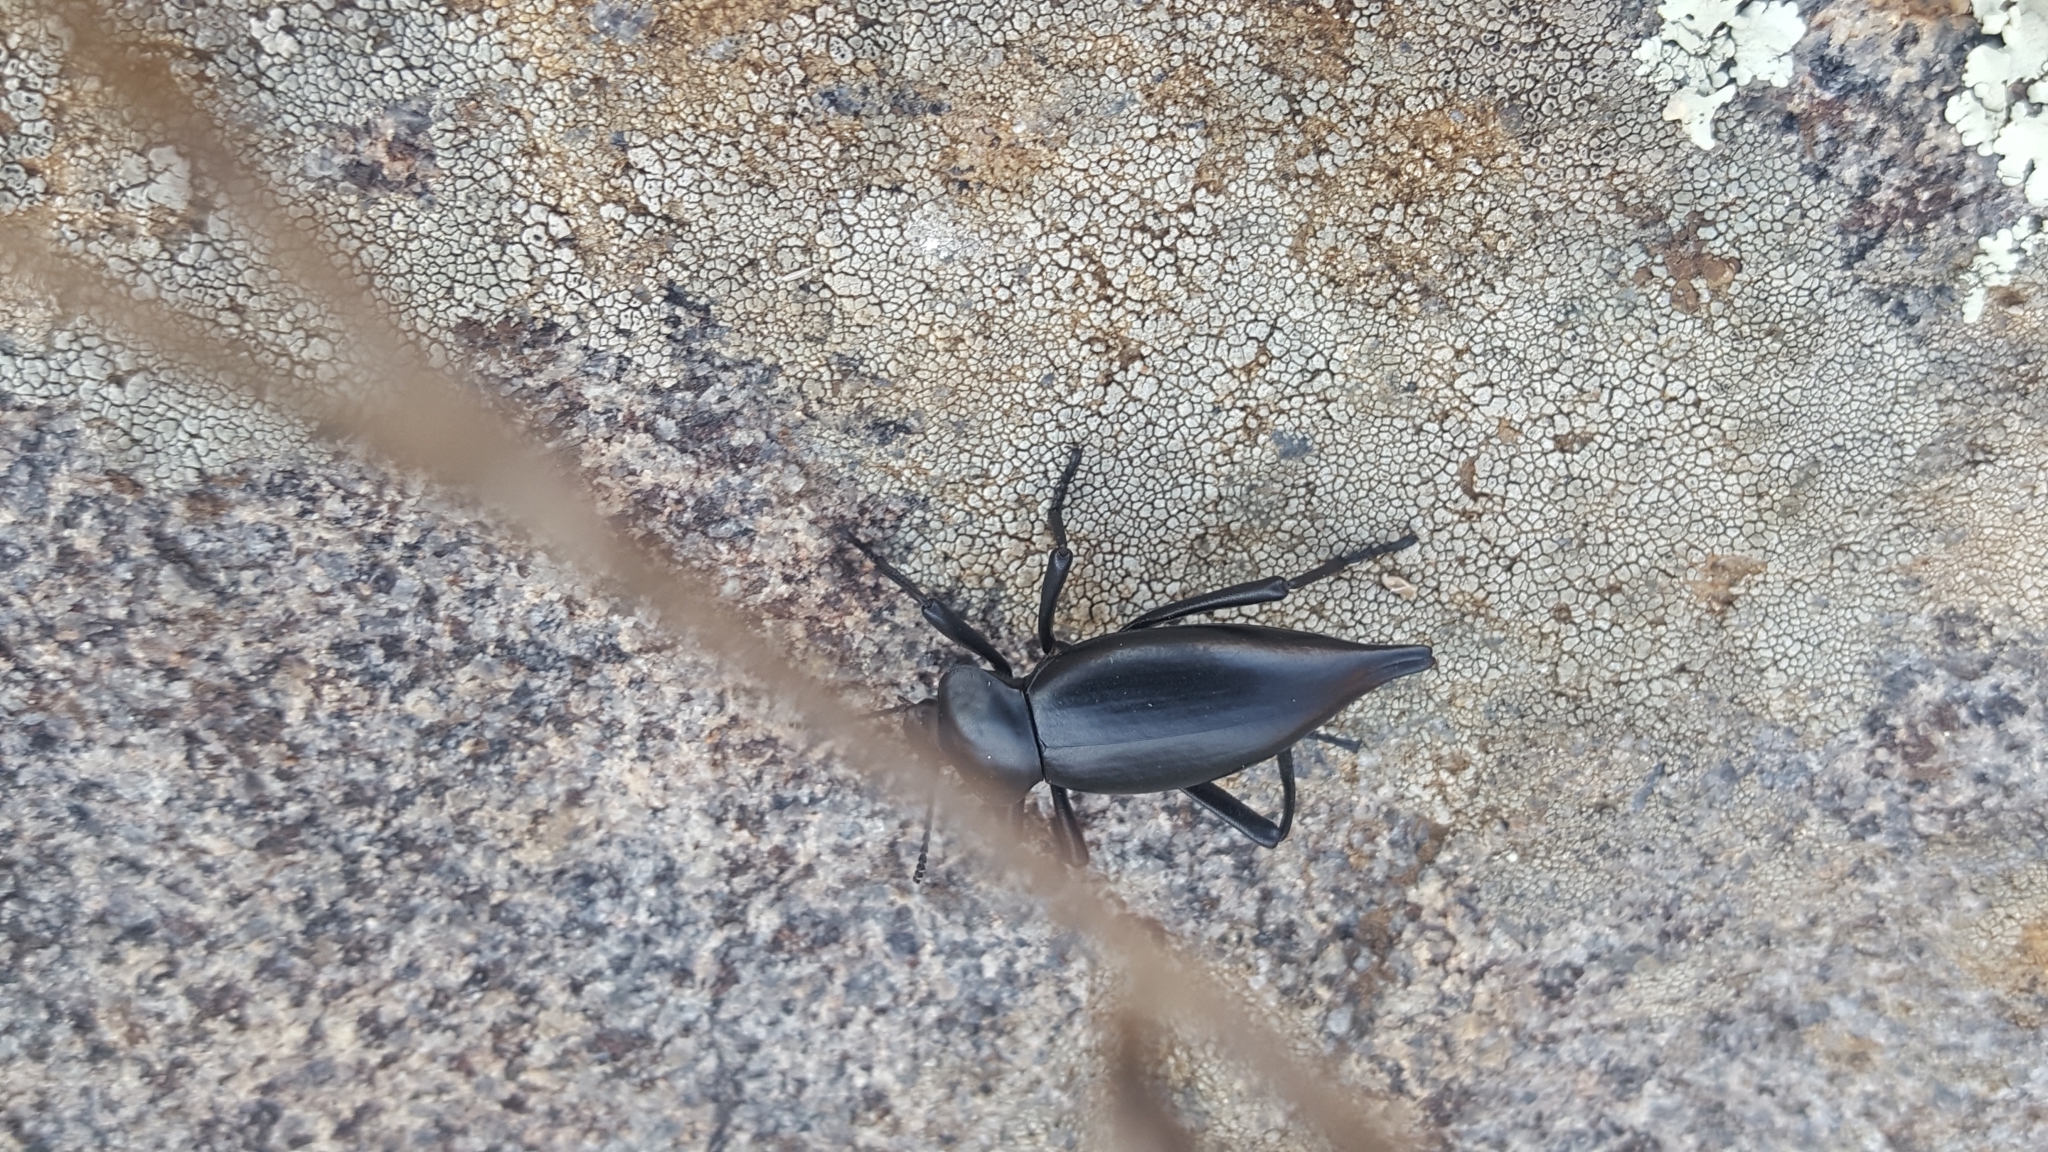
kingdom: Animalia
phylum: Arthropoda
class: Insecta
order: Coleoptera
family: Tenebrionidae
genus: Eleodes
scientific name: Eleodes acuticauda
